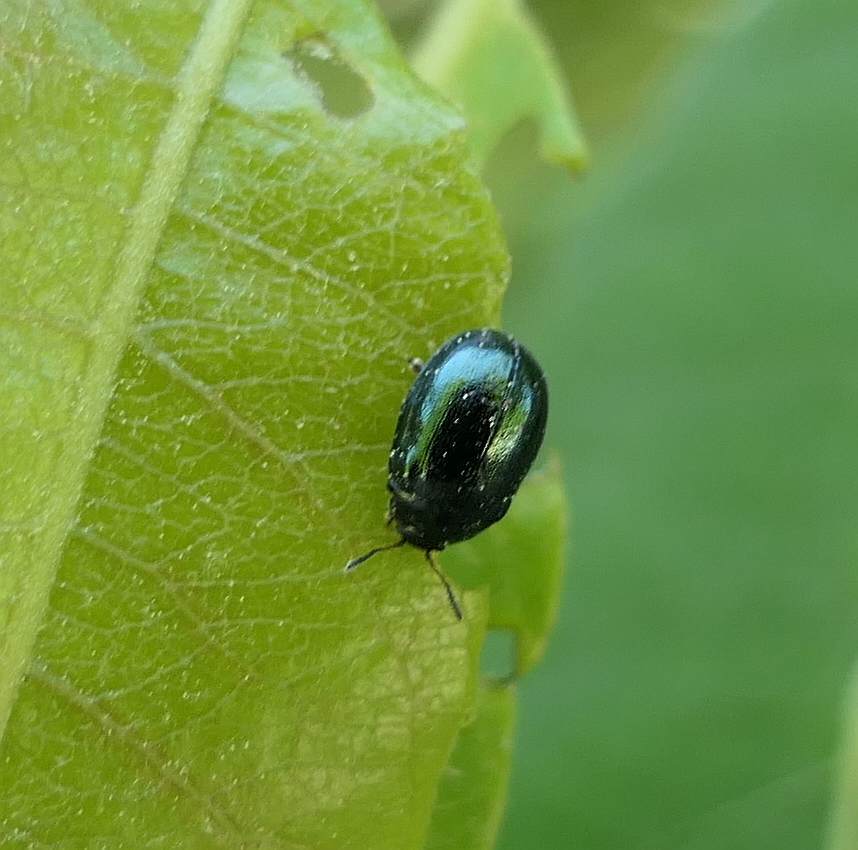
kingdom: Animalia
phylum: Arthropoda
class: Insecta
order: Coleoptera
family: Chrysomelidae
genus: Plagiodera
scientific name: Plagiodera versicolora
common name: Imported willow leaf beetle
